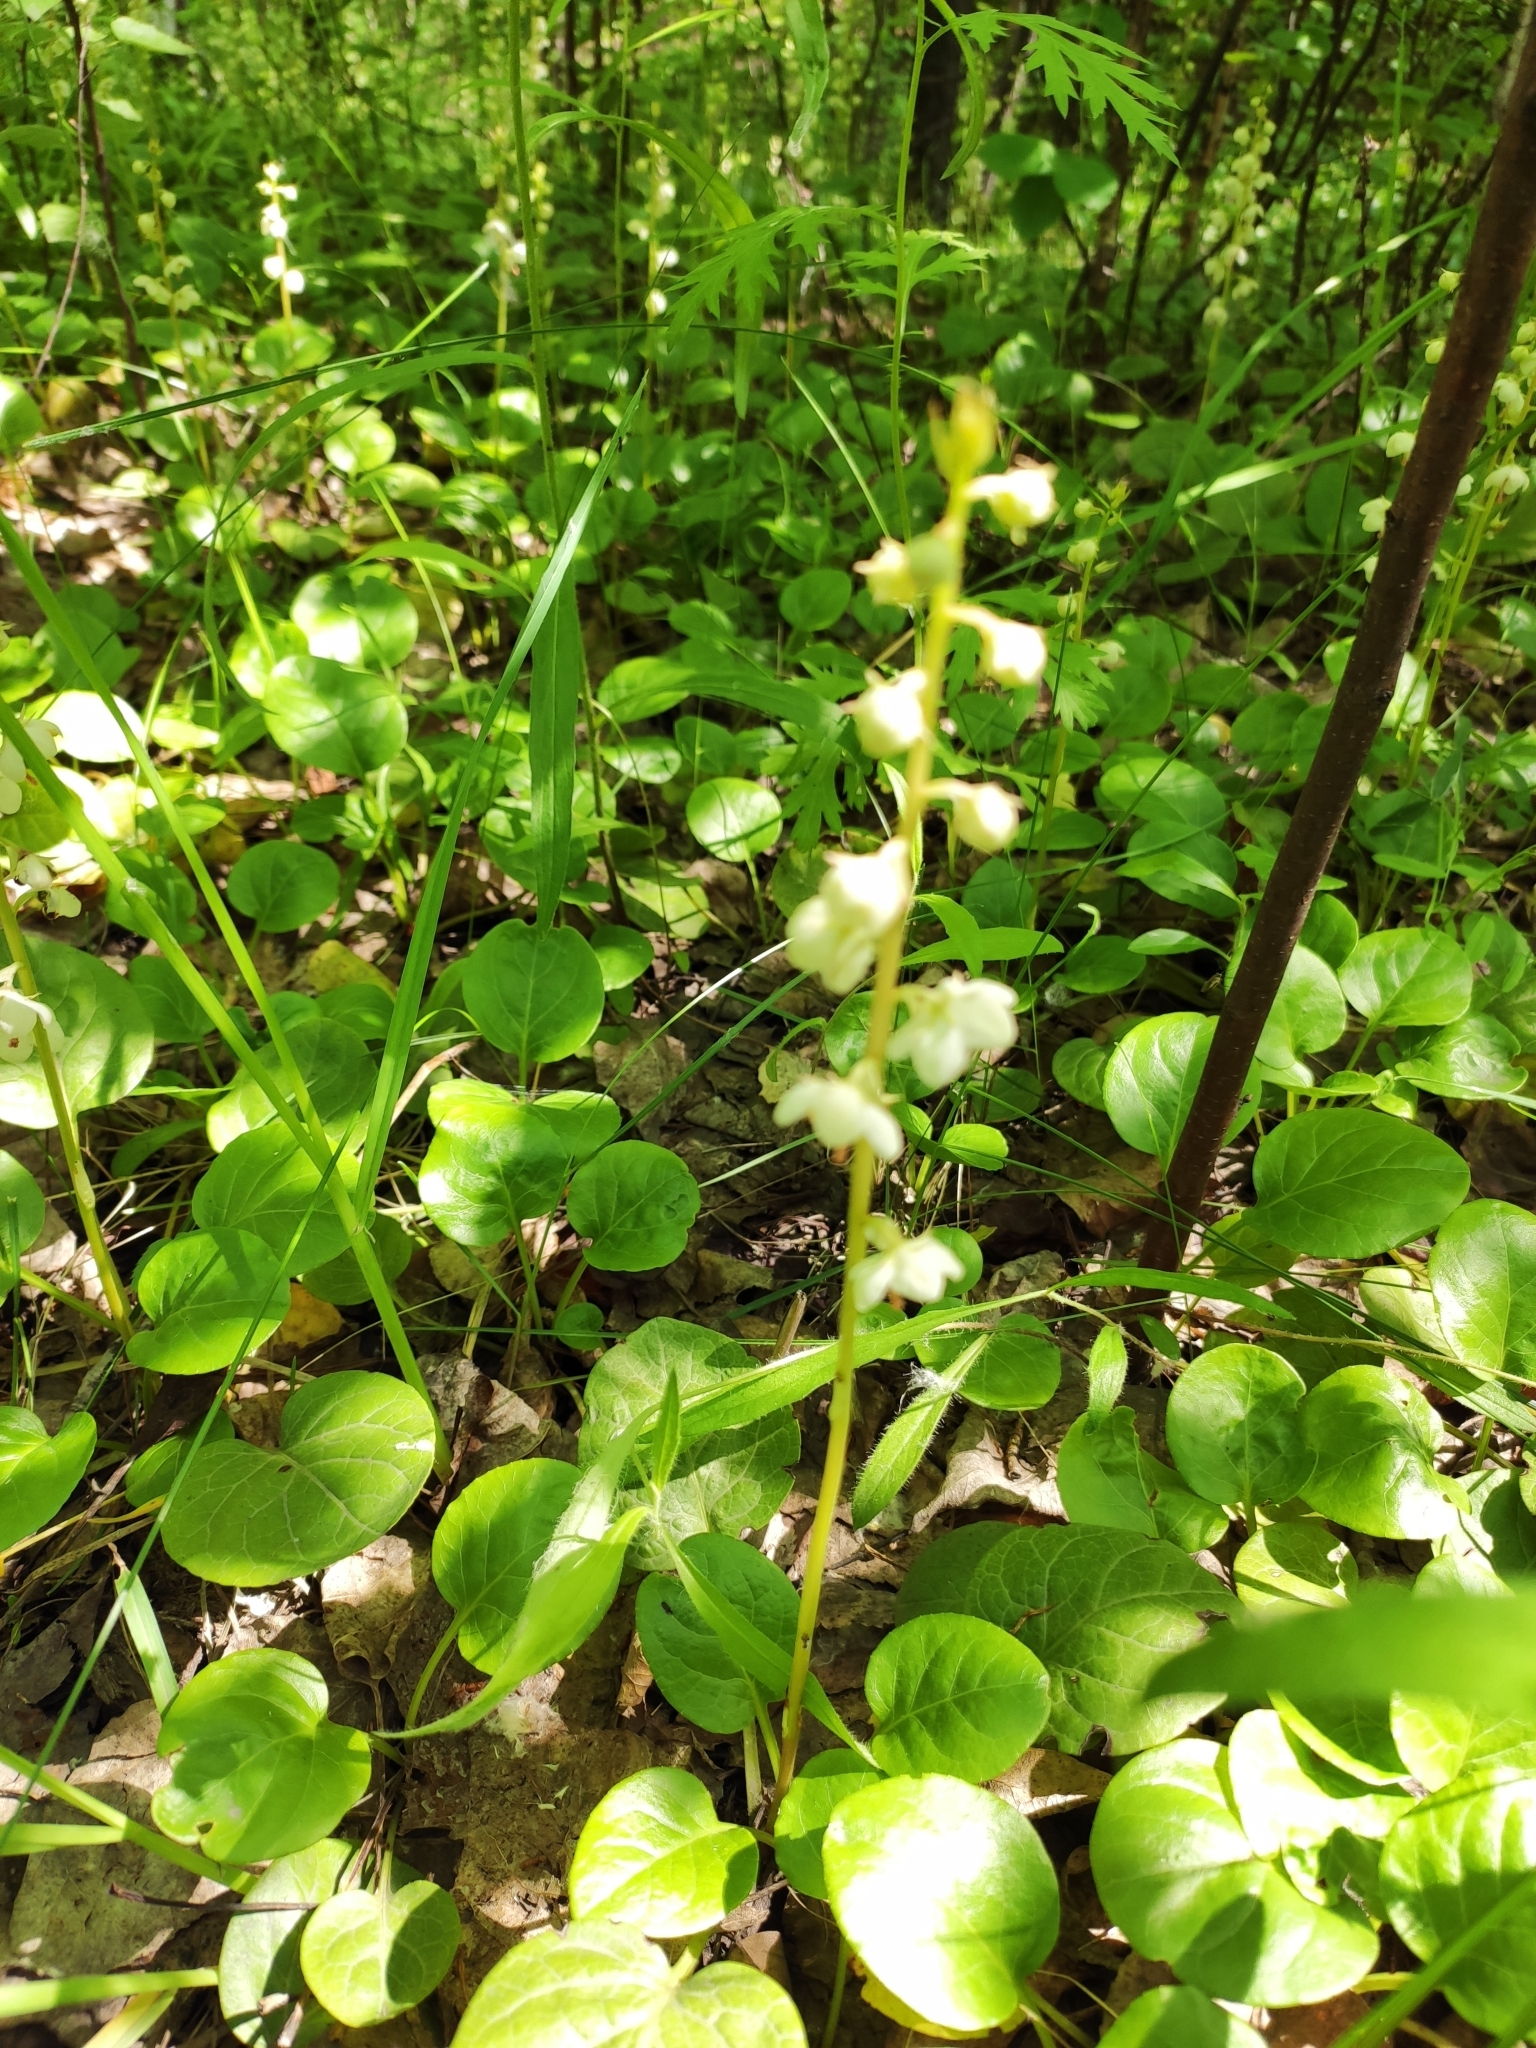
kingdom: Plantae
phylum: Tracheophyta
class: Magnoliopsida
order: Ericales
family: Ericaceae
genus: Pyrola
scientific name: Pyrola rotundifolia
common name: Round-leaved wintergreen
